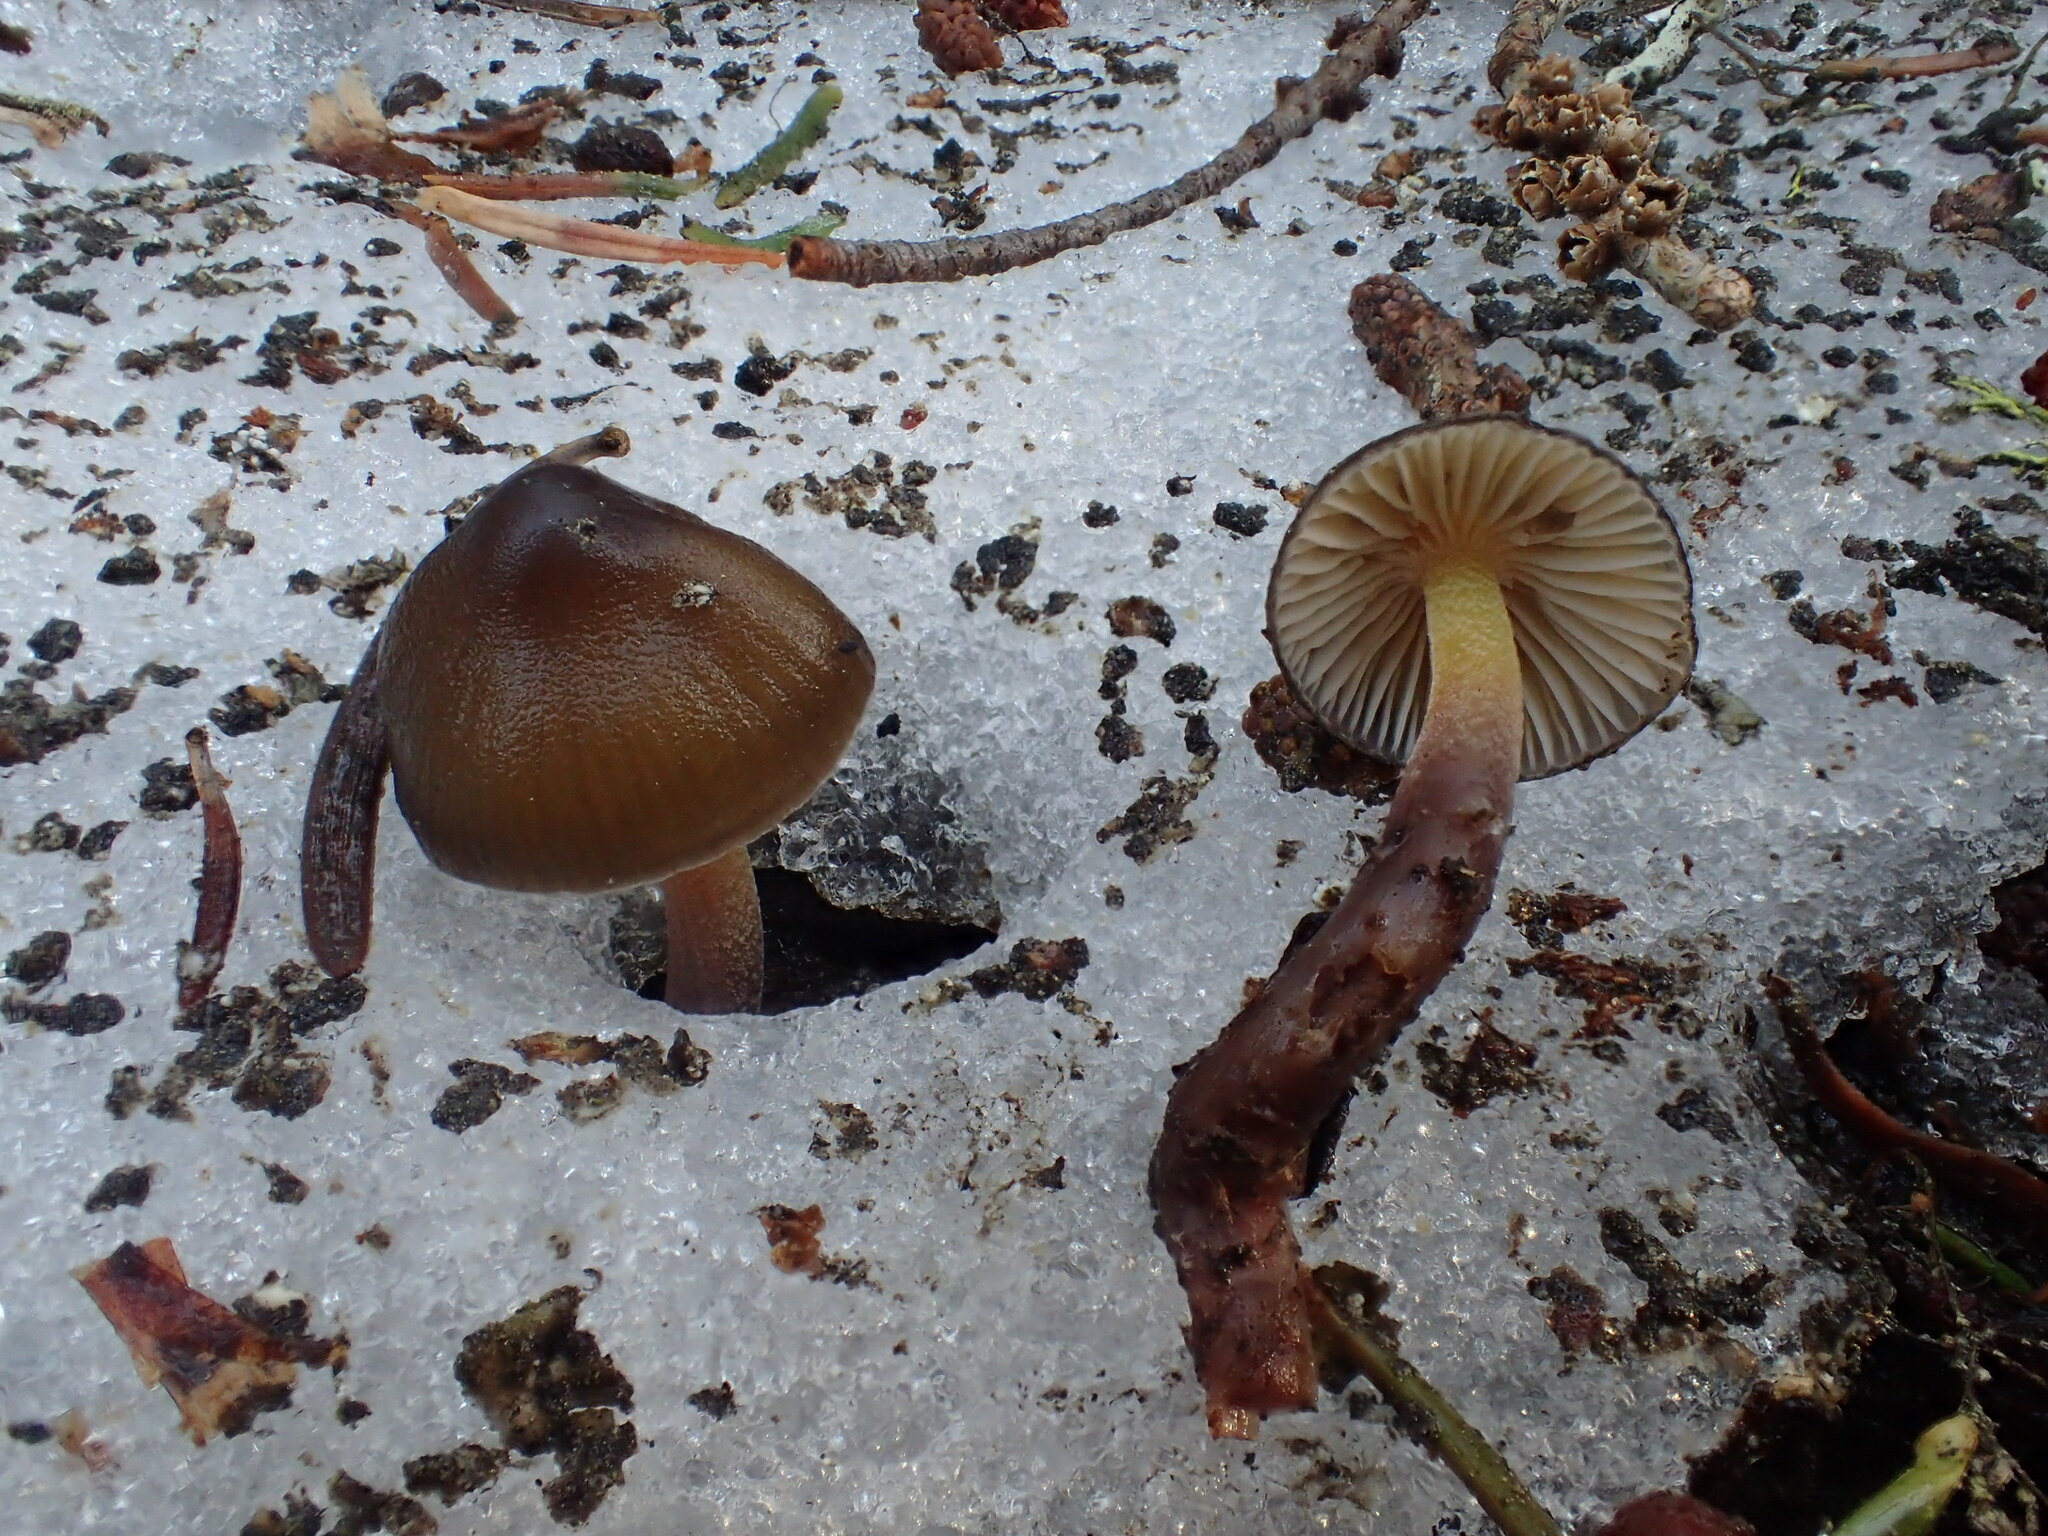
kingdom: Fungi
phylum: Basidiomycota
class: Agaricomycetes
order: Agaricales
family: Mycenaceae
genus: Mycena
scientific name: Mycena nivicola
